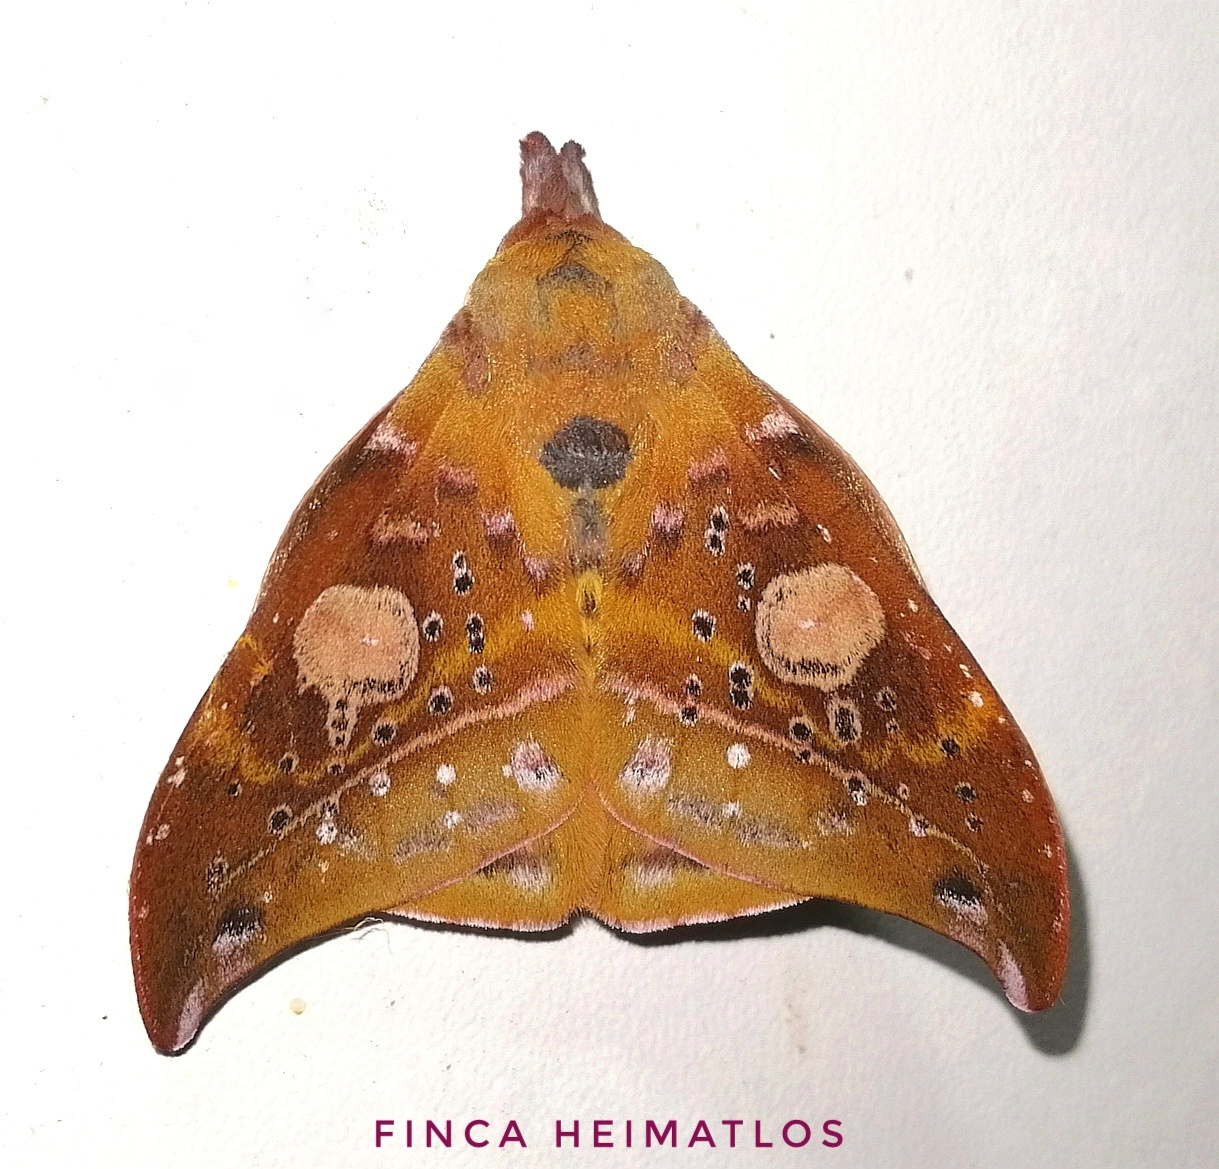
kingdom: Animalia
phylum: Arthropoda
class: Insecta
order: Lepidoptera
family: Saturniidae
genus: Automerina
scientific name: Automerina auletes
